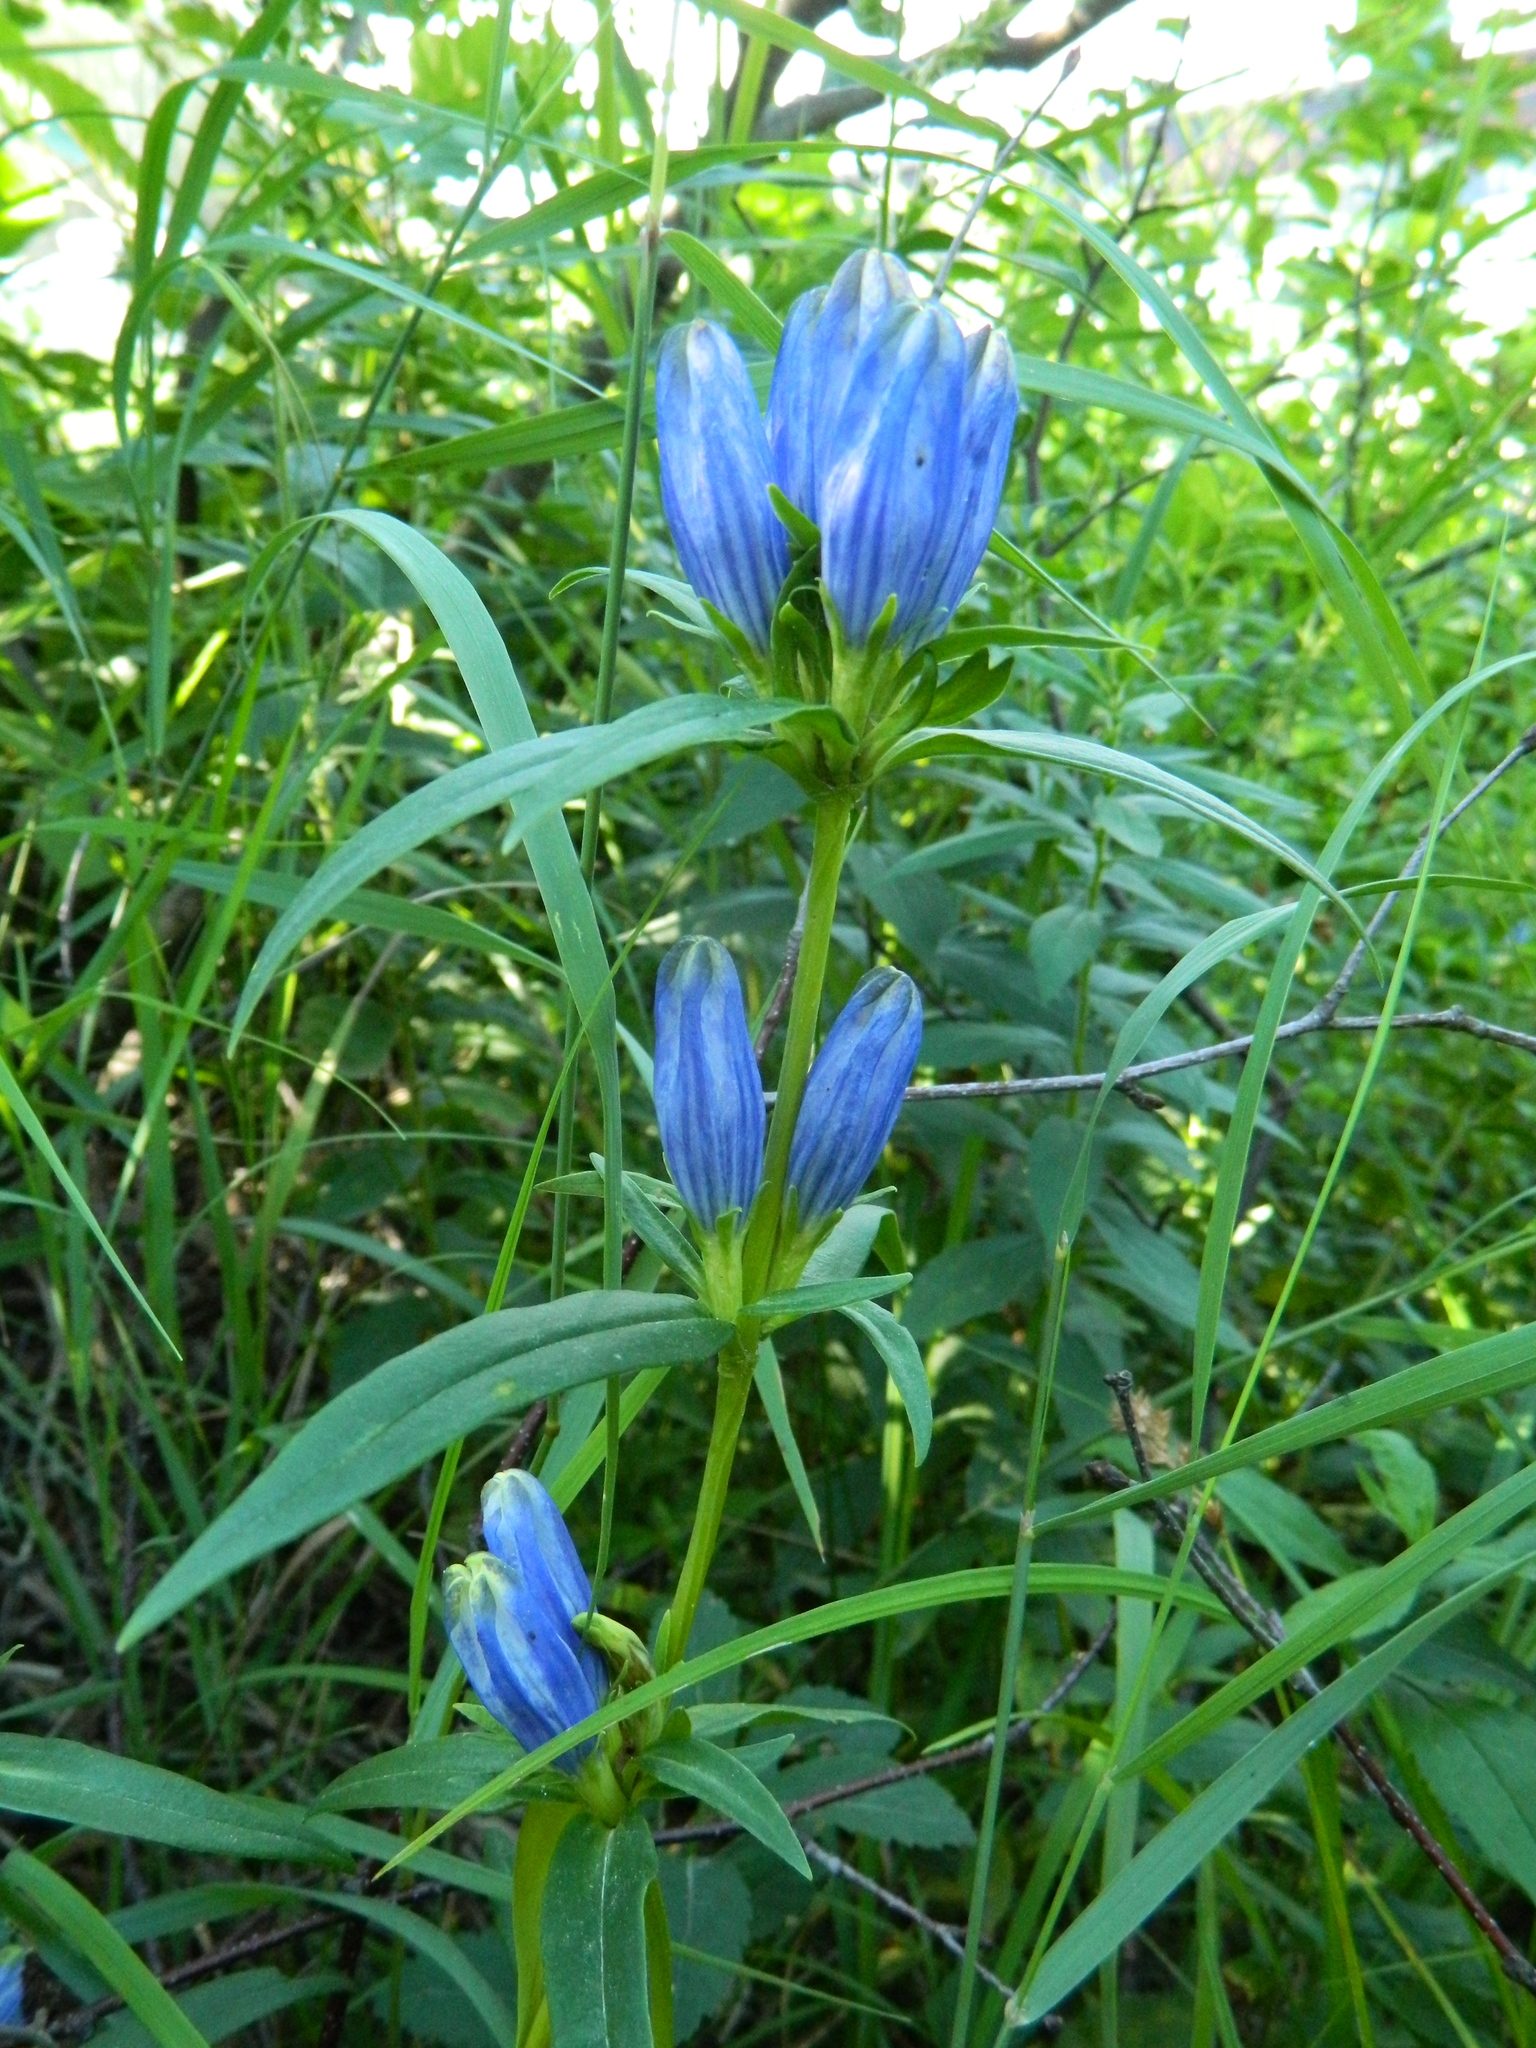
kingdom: Plantae
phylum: Tracheophyta
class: Magnoliopsida
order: Gentianales
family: Gentianaceae
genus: Gentiana
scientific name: Gentiana linearis
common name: Bastard gentian
